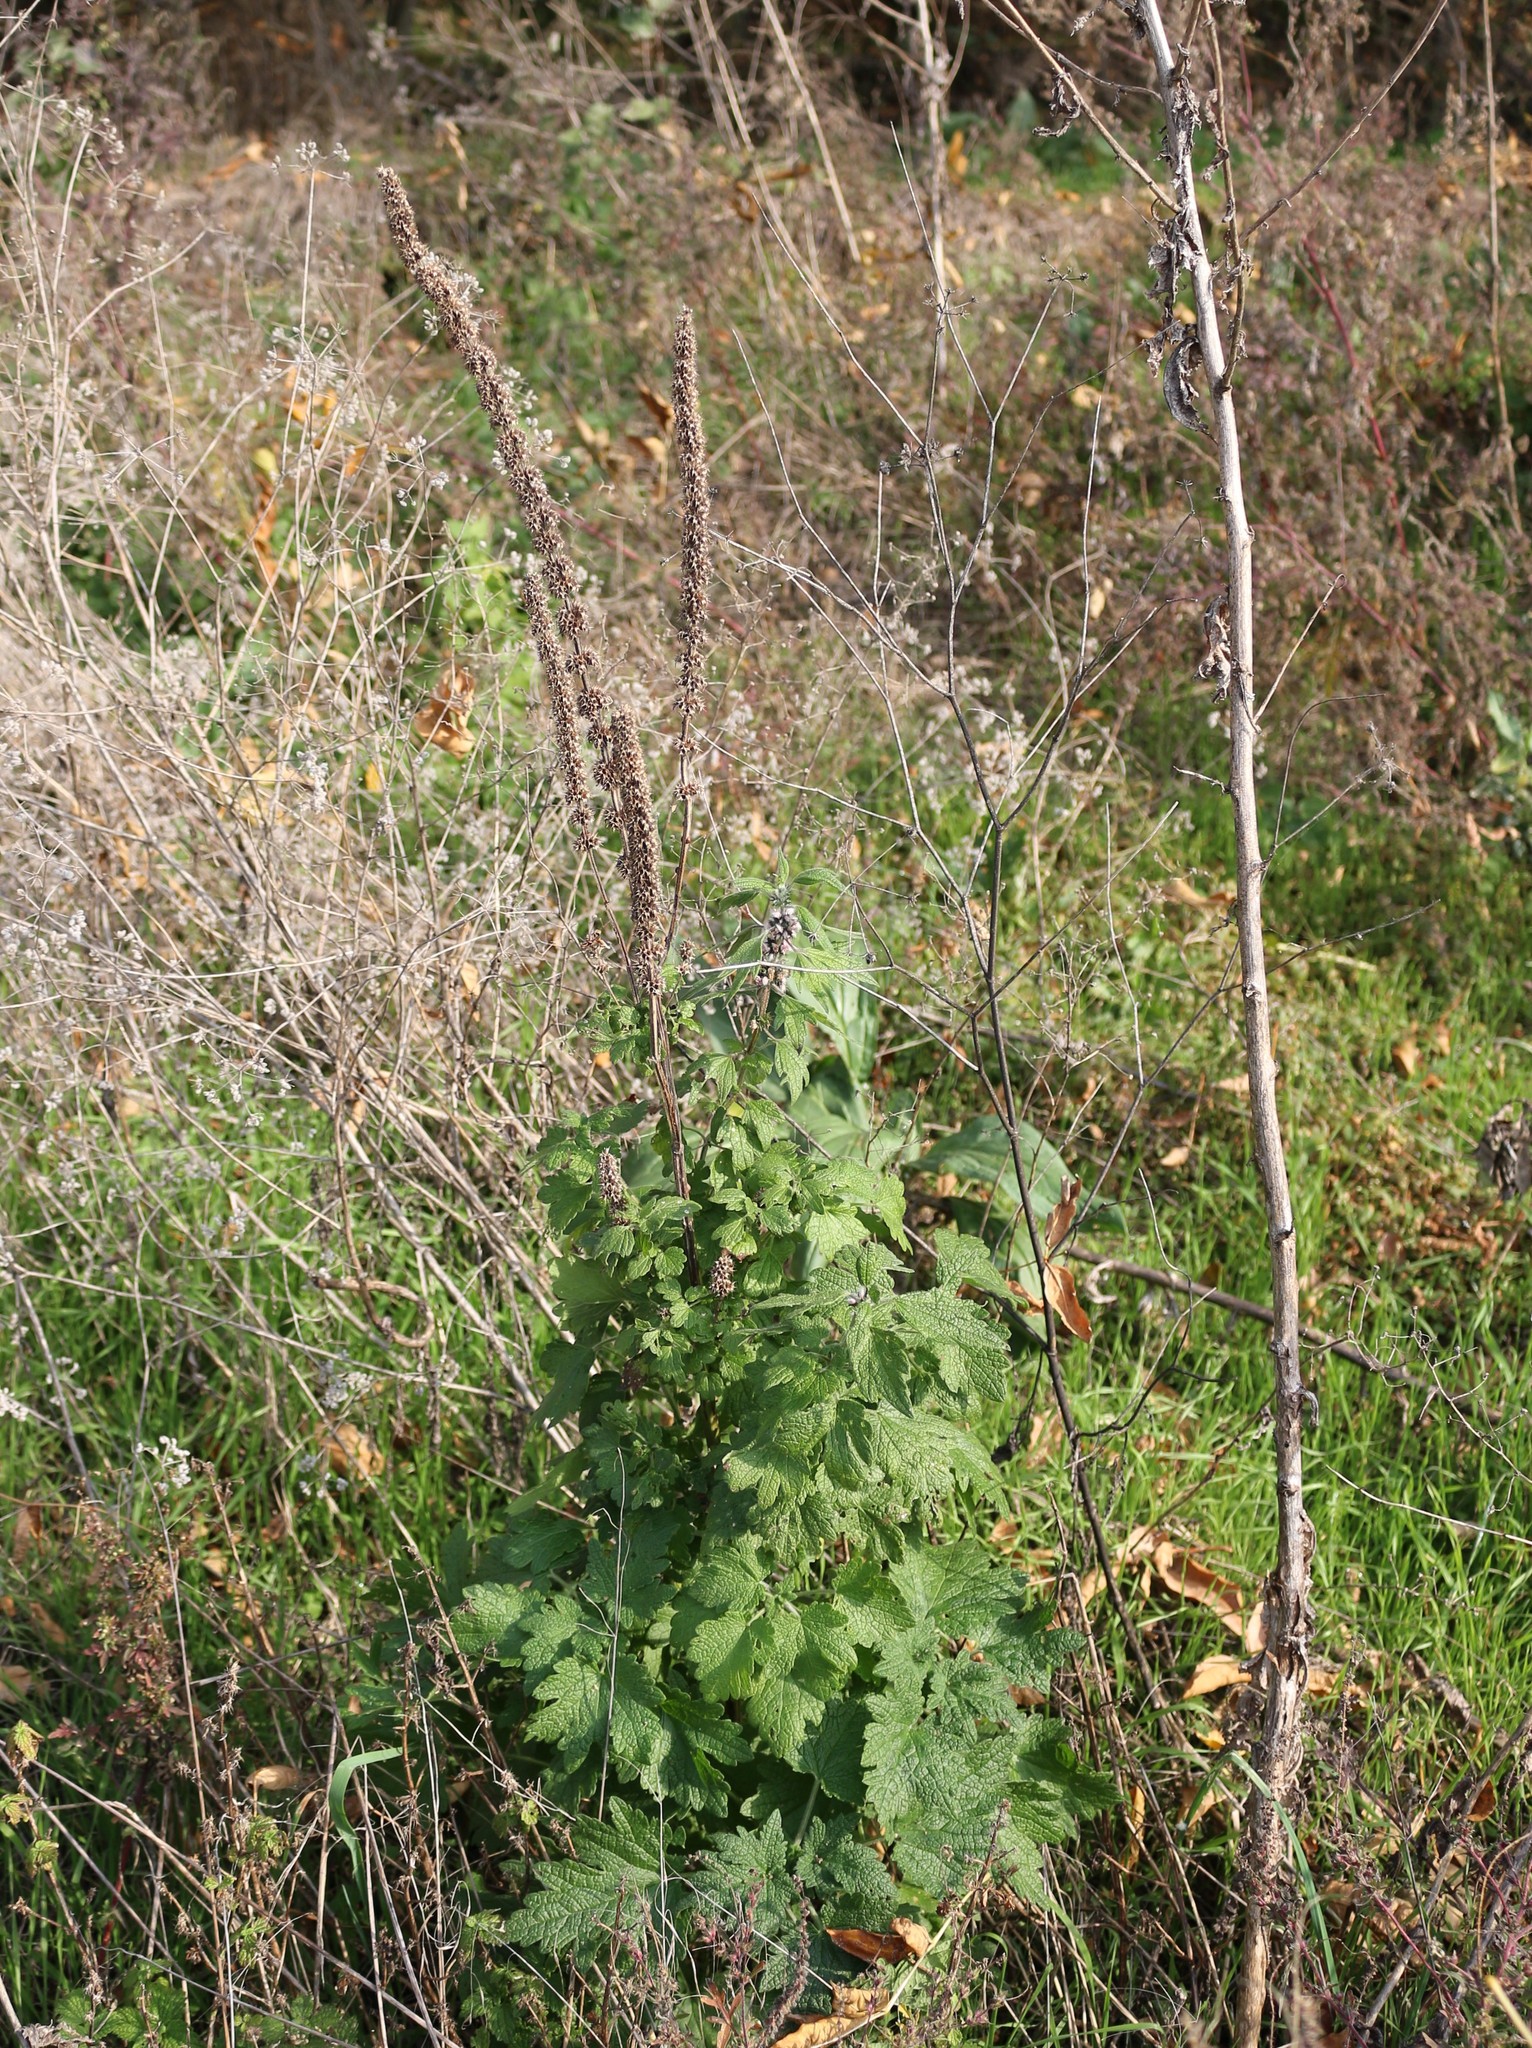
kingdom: Plantae
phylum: Tracheophyta
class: Magnoliopsida
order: Lamiales
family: Lamiaceae
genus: Leonurus
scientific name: Leonurus quinquelobatus
